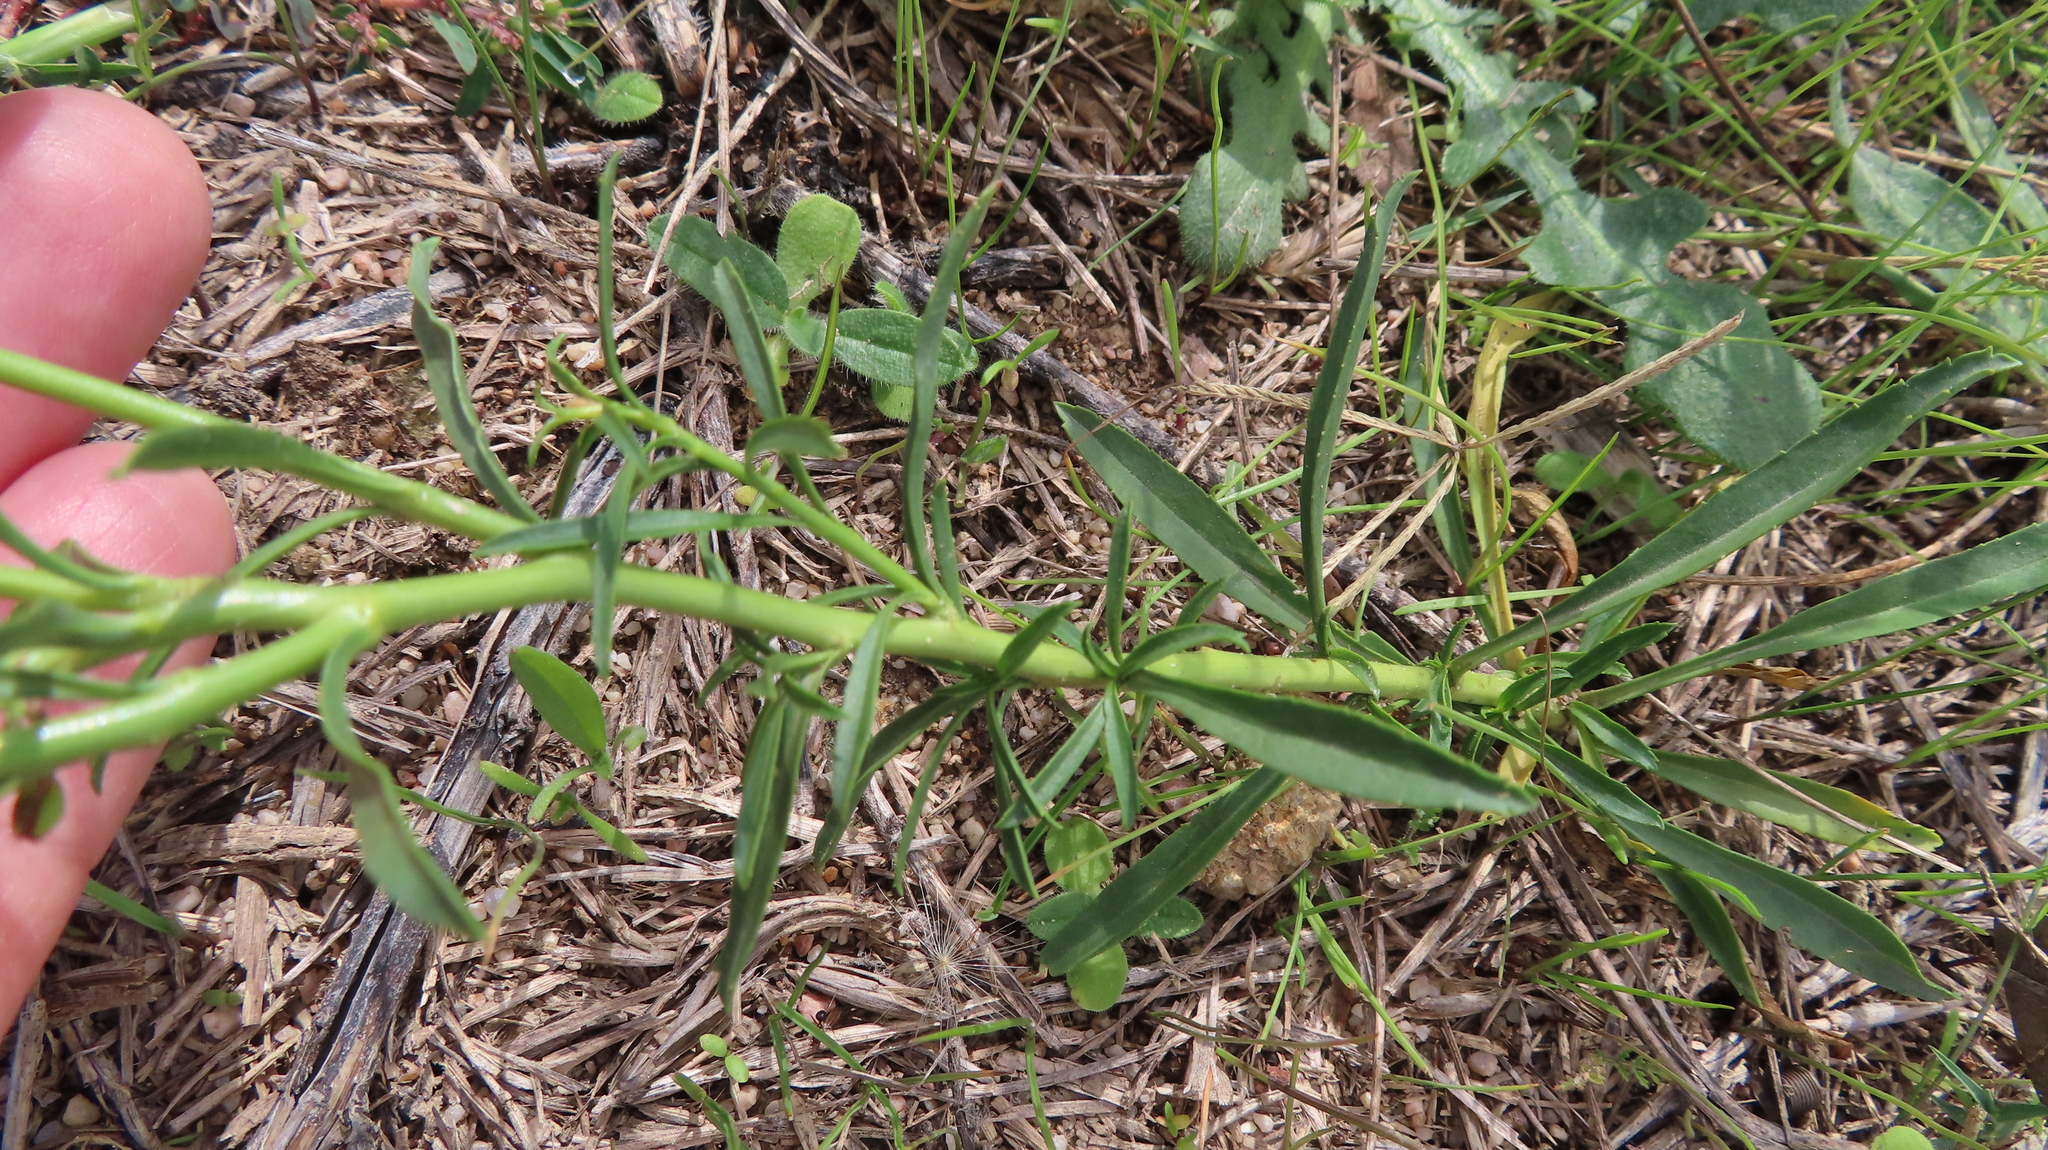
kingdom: Plantae
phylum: Tracheophyta
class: Magnoliopsida
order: Brassicales
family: Brassicaceae
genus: Lepidium
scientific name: Lepidium africanum
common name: African pepperwort
